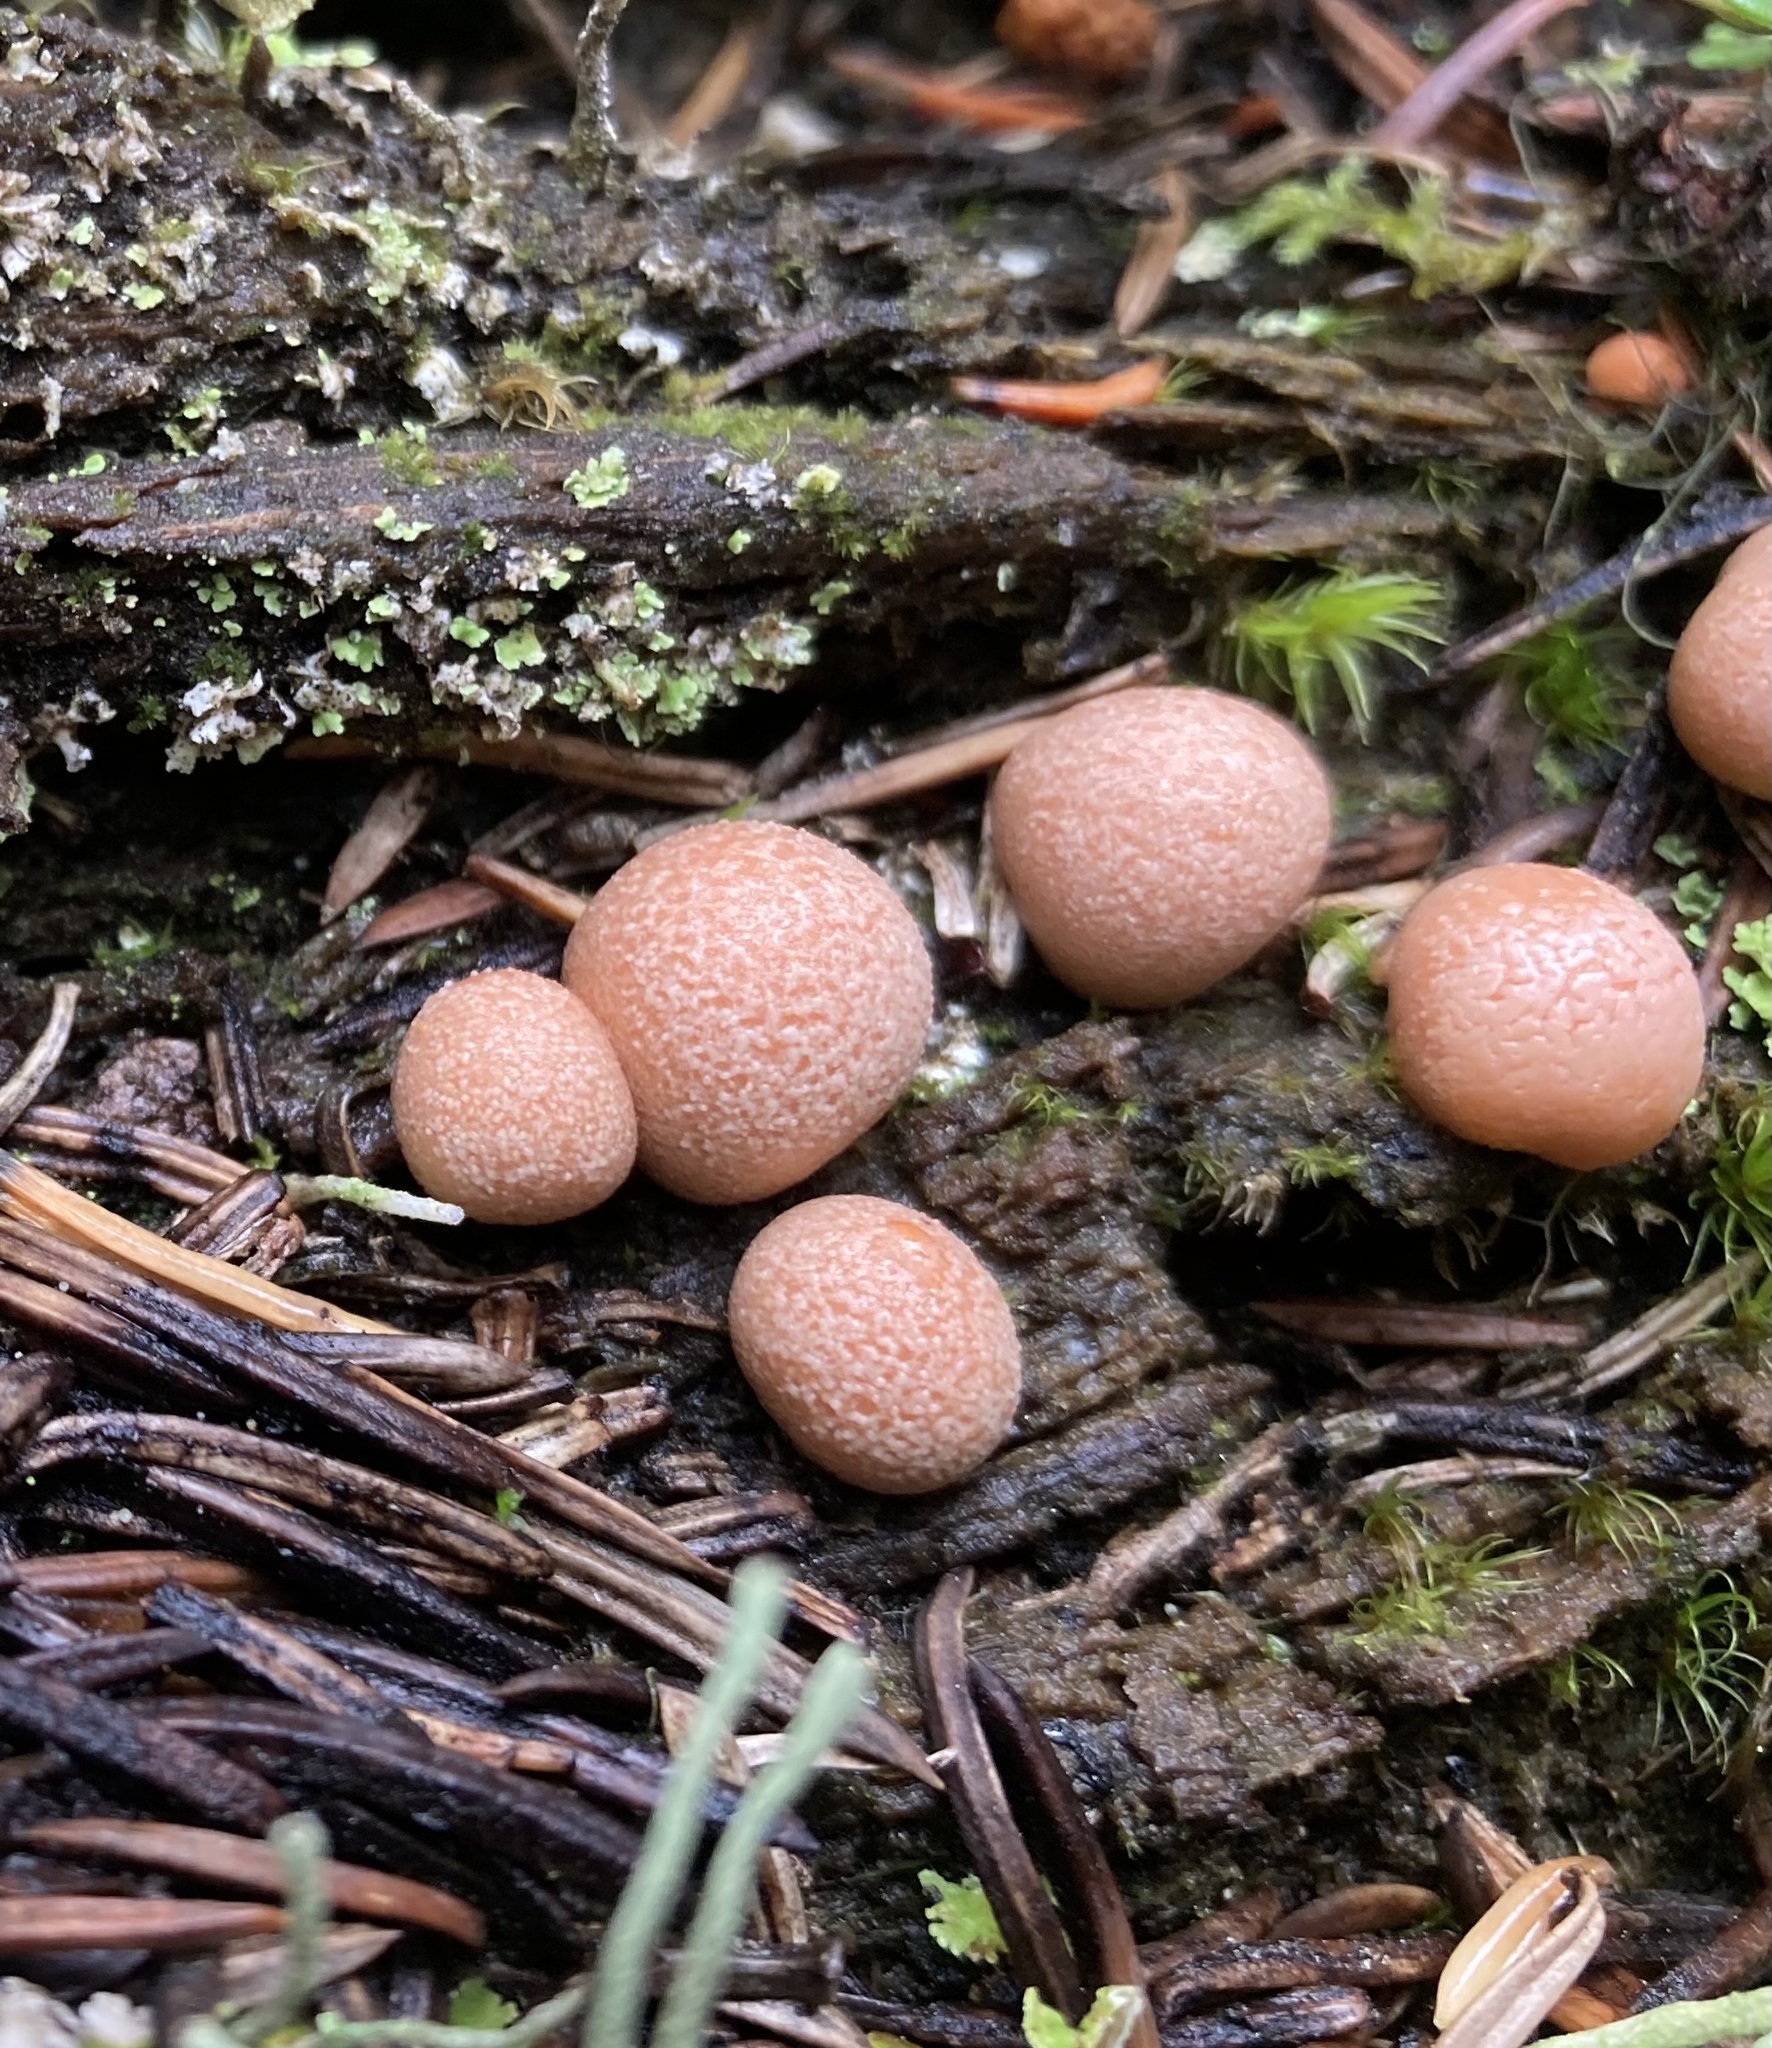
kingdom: Protozoa
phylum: Mycetozoa
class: Myxomycetes
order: Cribrariales
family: Tubiferaceae
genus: Lycogala
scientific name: Lycogala epidendrum
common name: Wolf's milk
